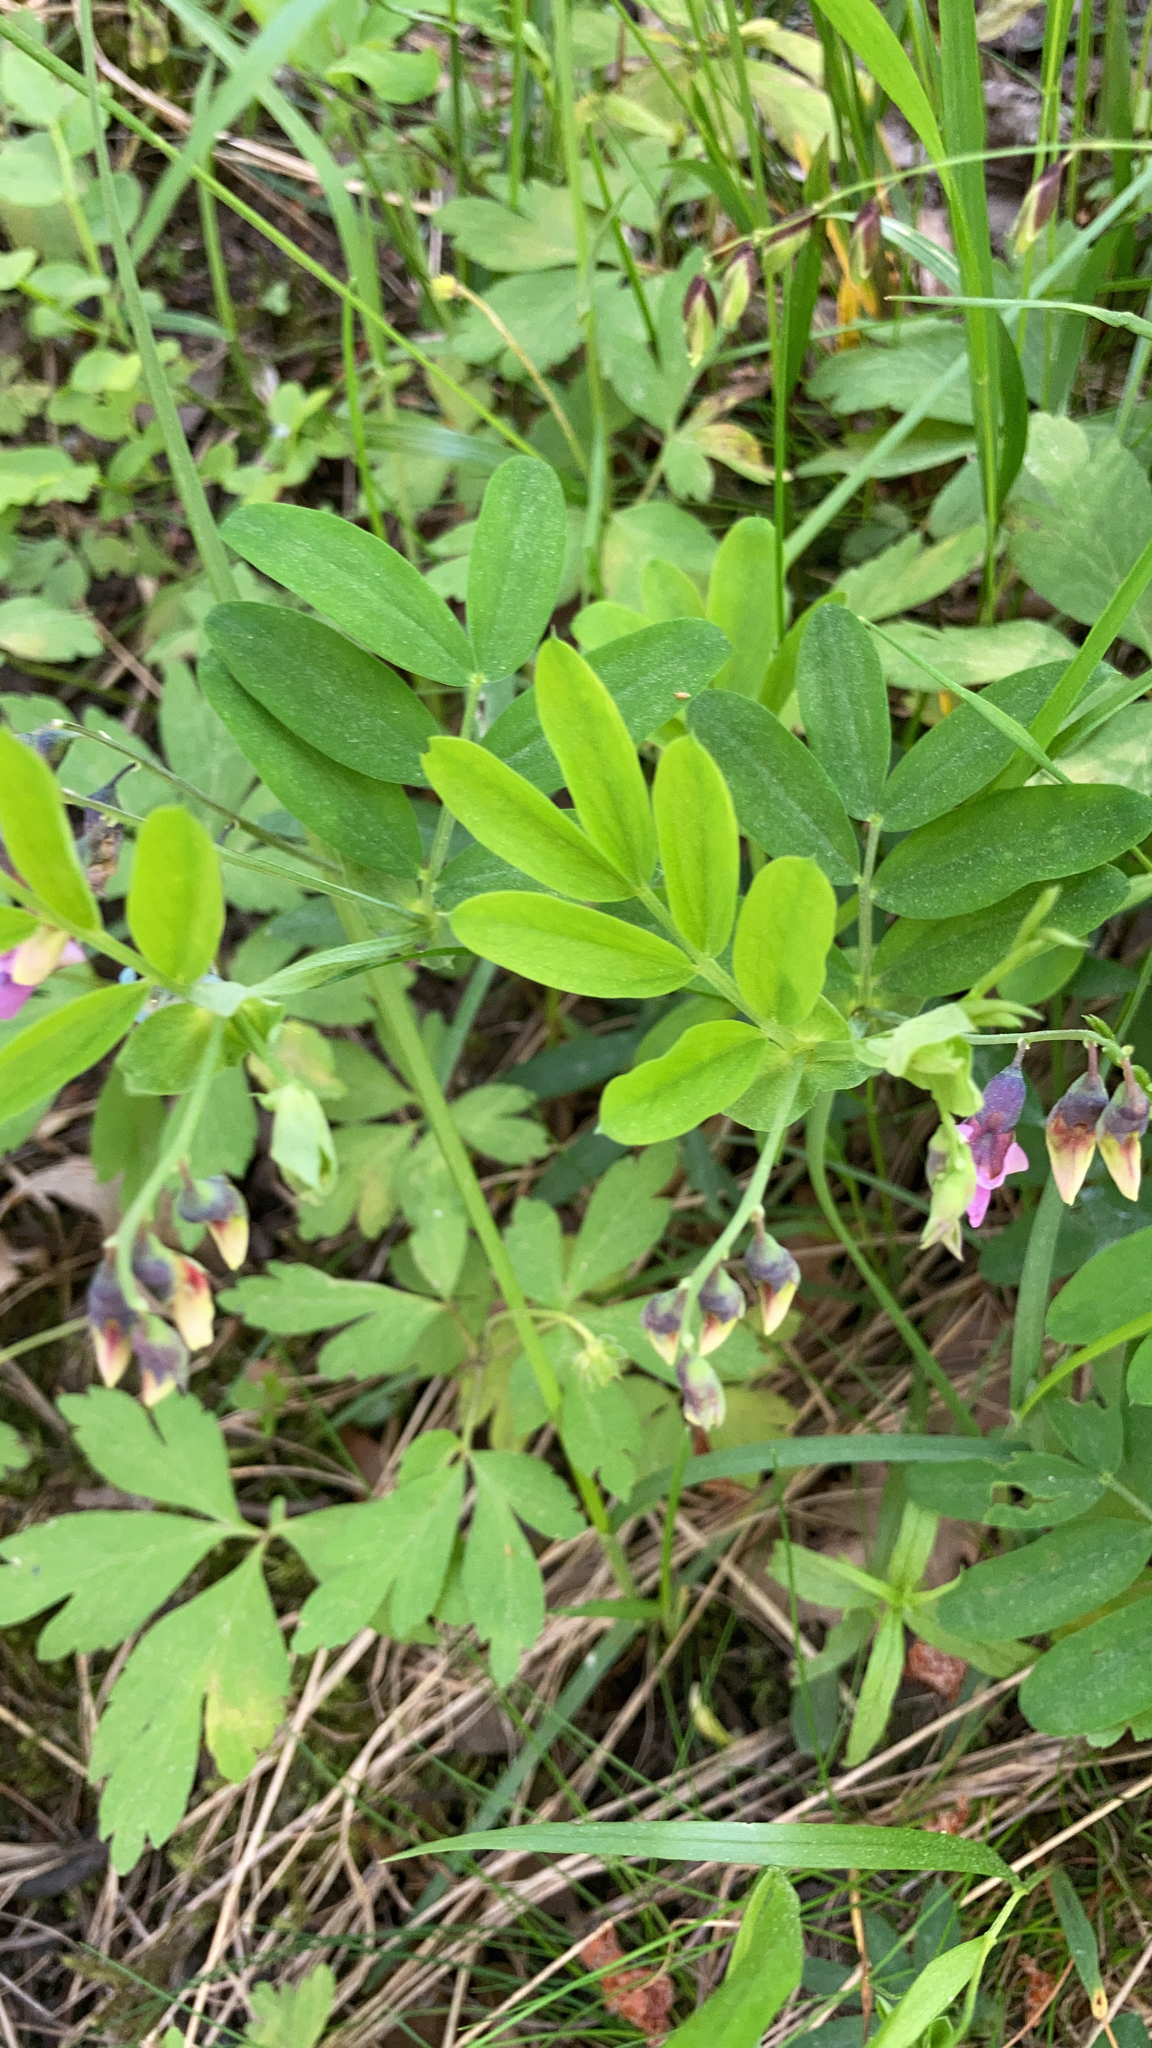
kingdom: Plantae
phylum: Tracheophyta
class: Magnoliopsida
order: Fabales
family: Fabaceae
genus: Lathyrus
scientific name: Lathyrus linifolius
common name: Bitter-vetch
